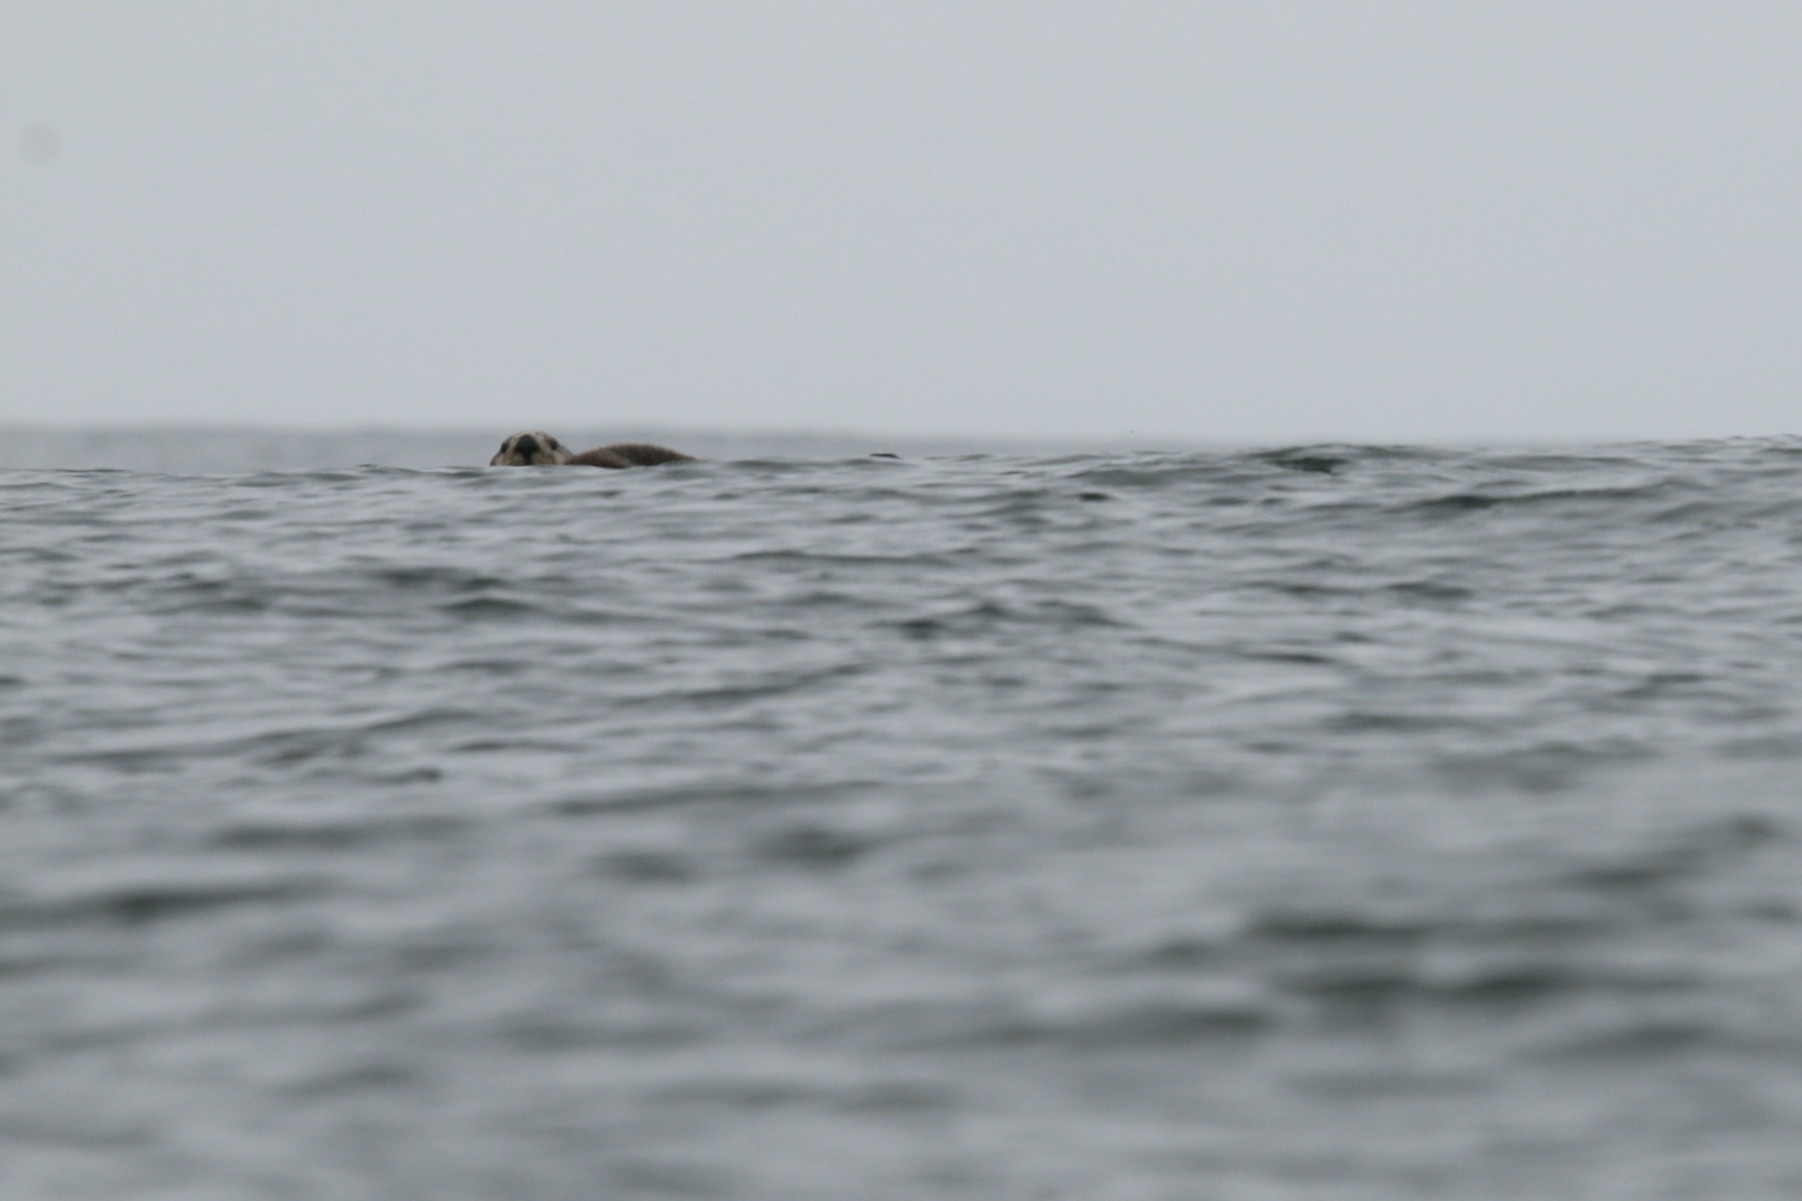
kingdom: Animalia
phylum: Chordata
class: Mammalia
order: Carnivora
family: Mustelidae
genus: Enhydra
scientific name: Enhydra lutris
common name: Sea otter
